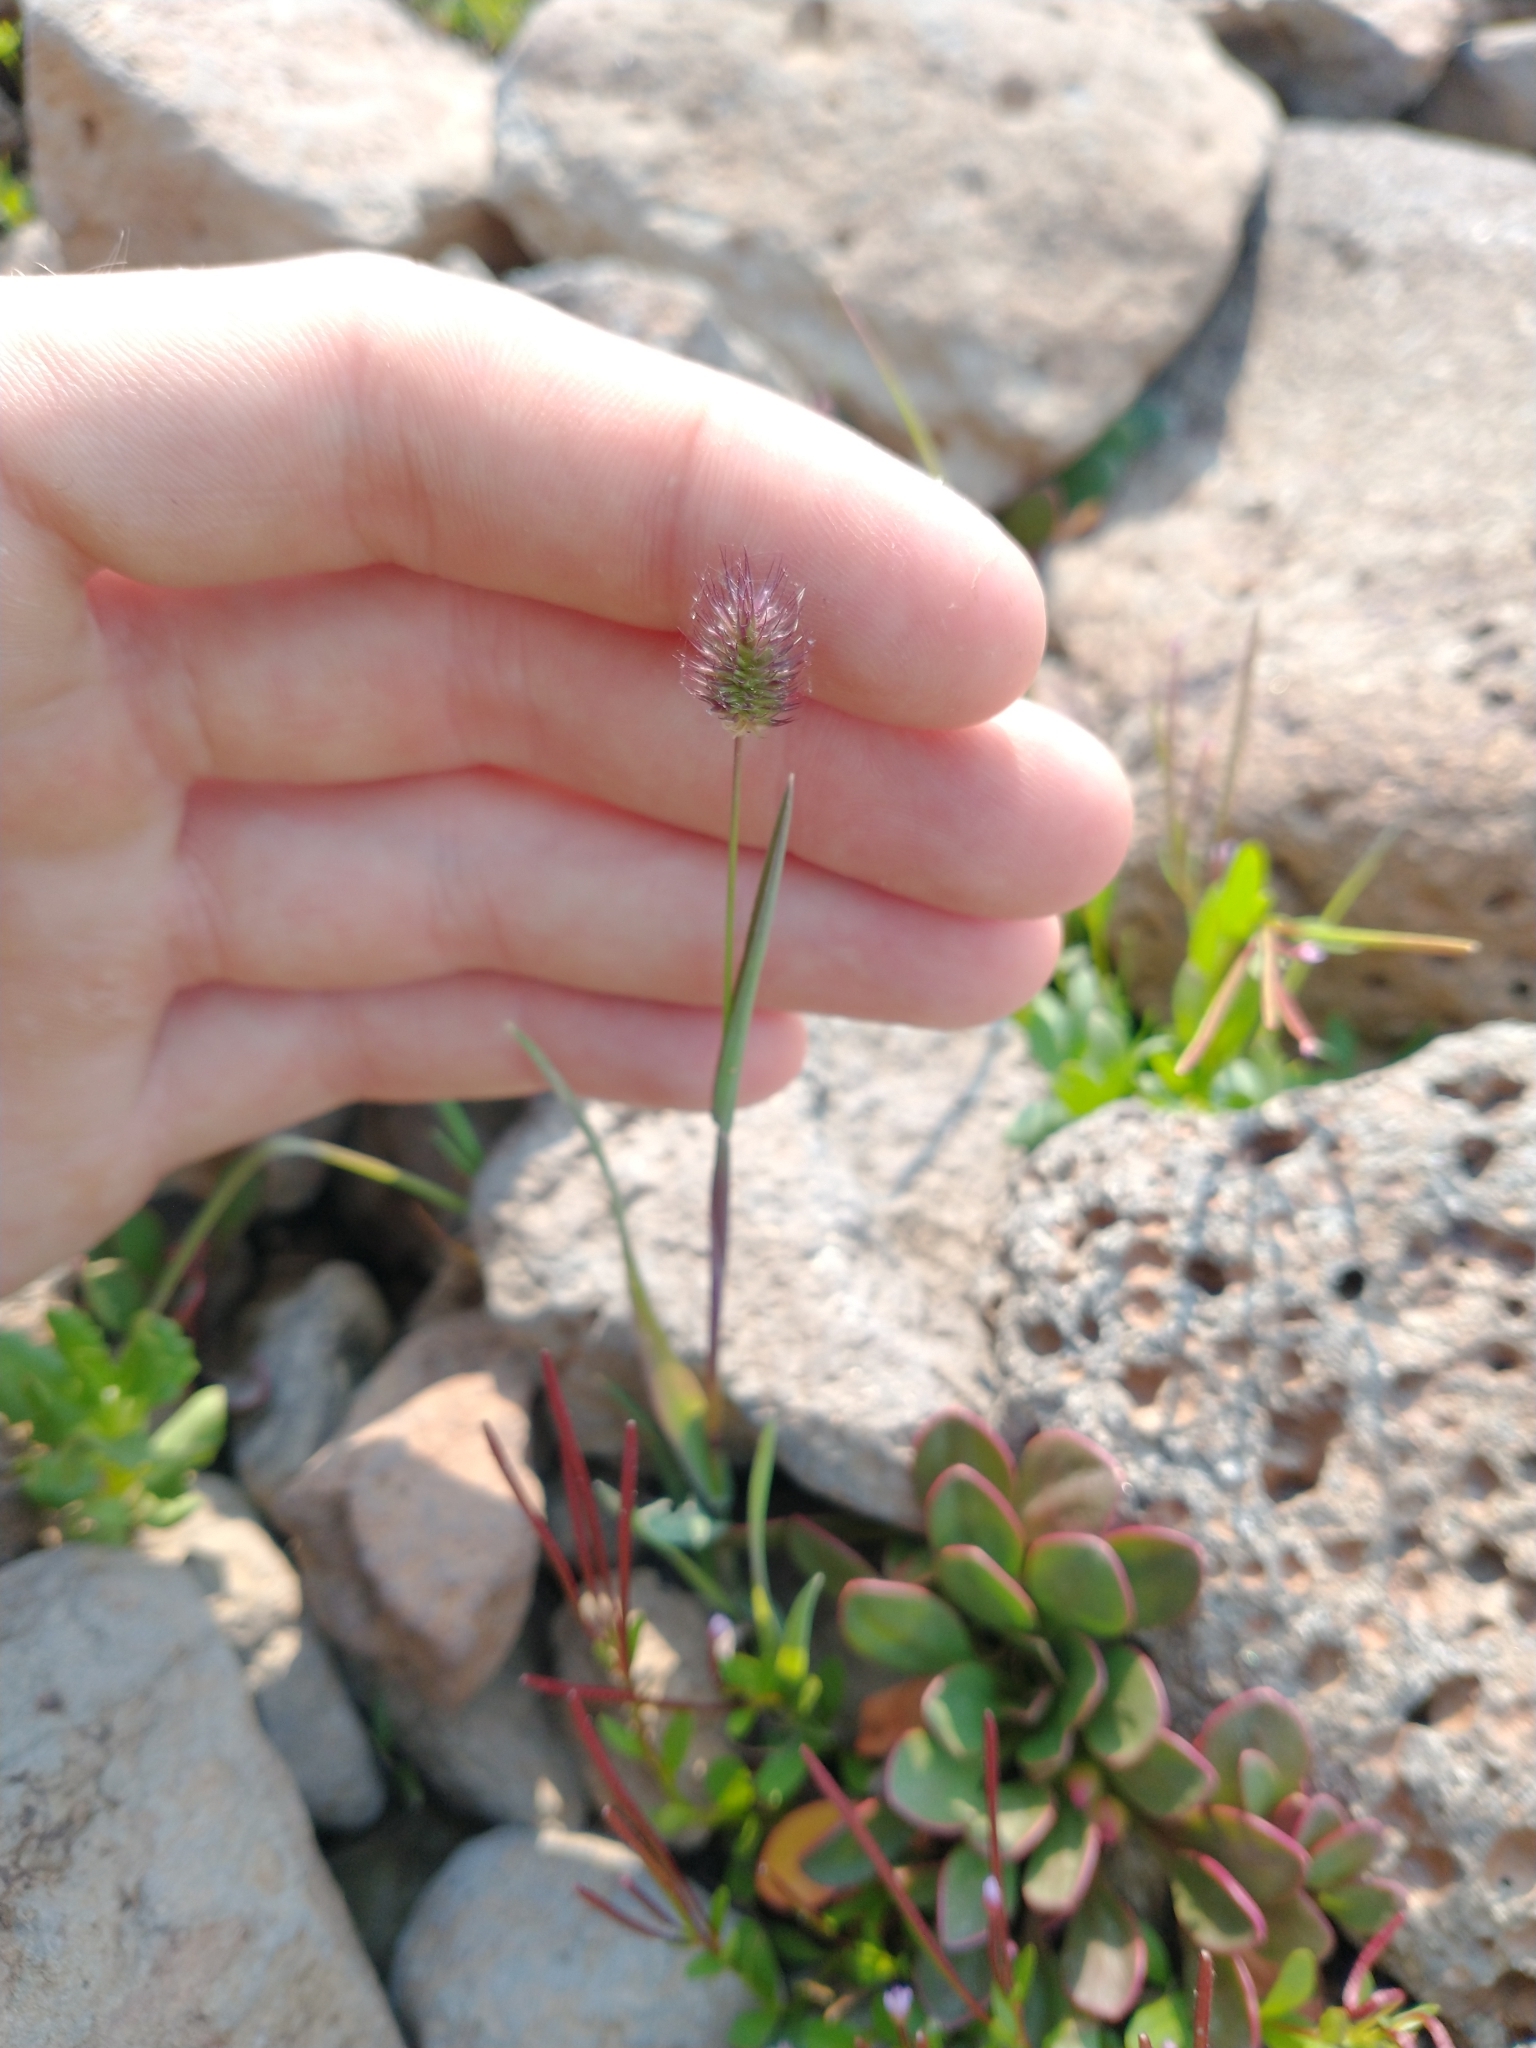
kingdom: Plantae
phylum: Tracheophyta
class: Liliopsida
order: Poales
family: Poaceae
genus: Phleum
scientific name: Phleum alpinum
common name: Alpine cat's-tail
